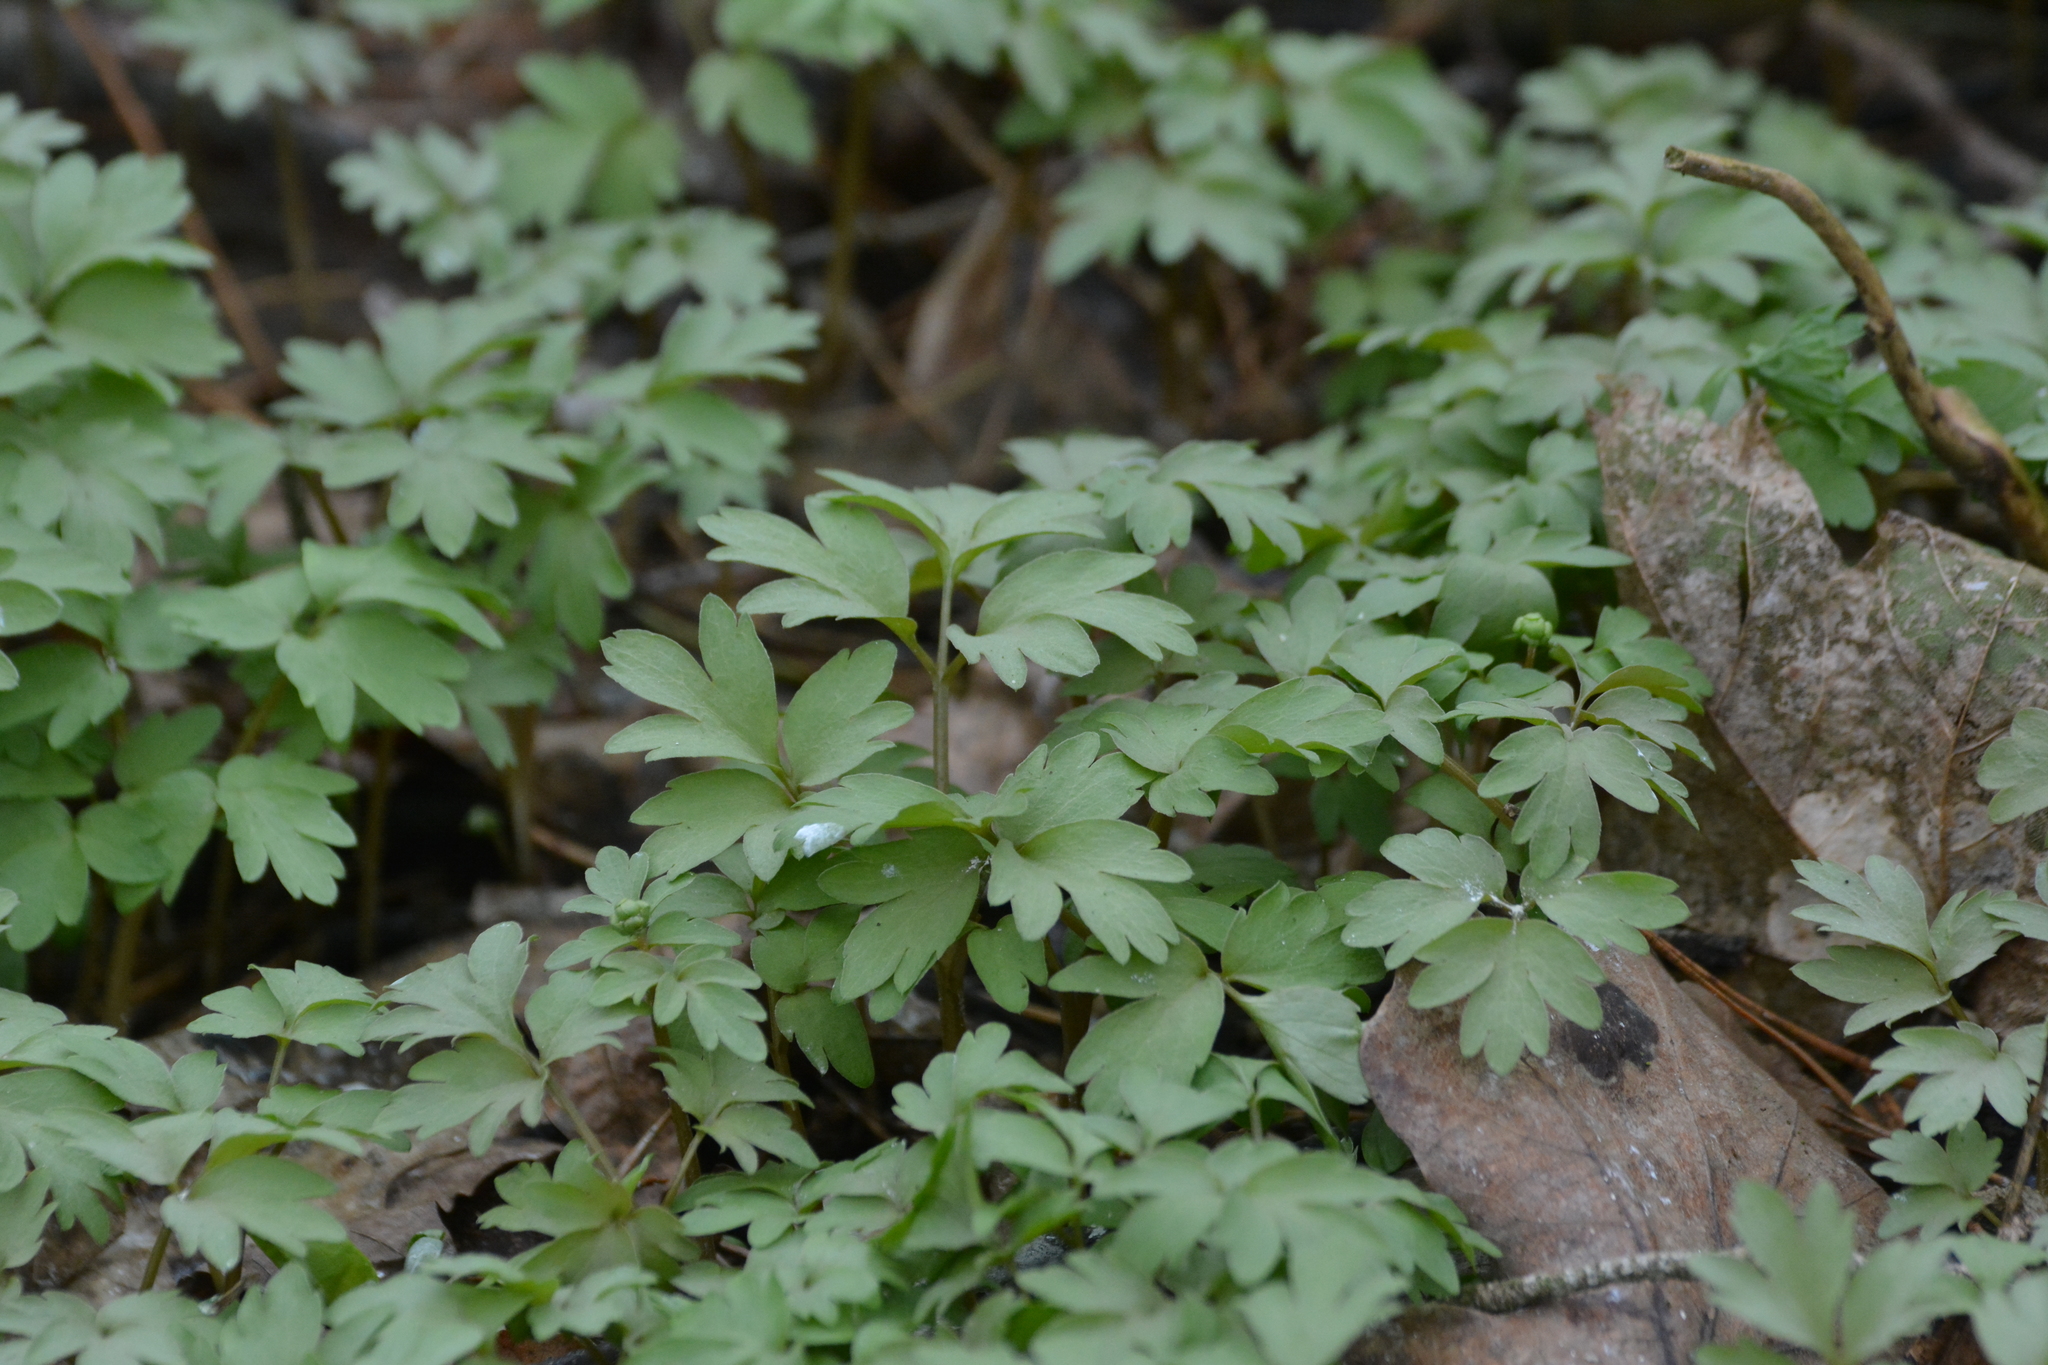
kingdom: Plantae
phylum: Tracheophyta
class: Magnoliopsida
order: Dipsacales
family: Viburnaceae
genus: Adoxa
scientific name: Adoxa moschatellina
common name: Moschatel
